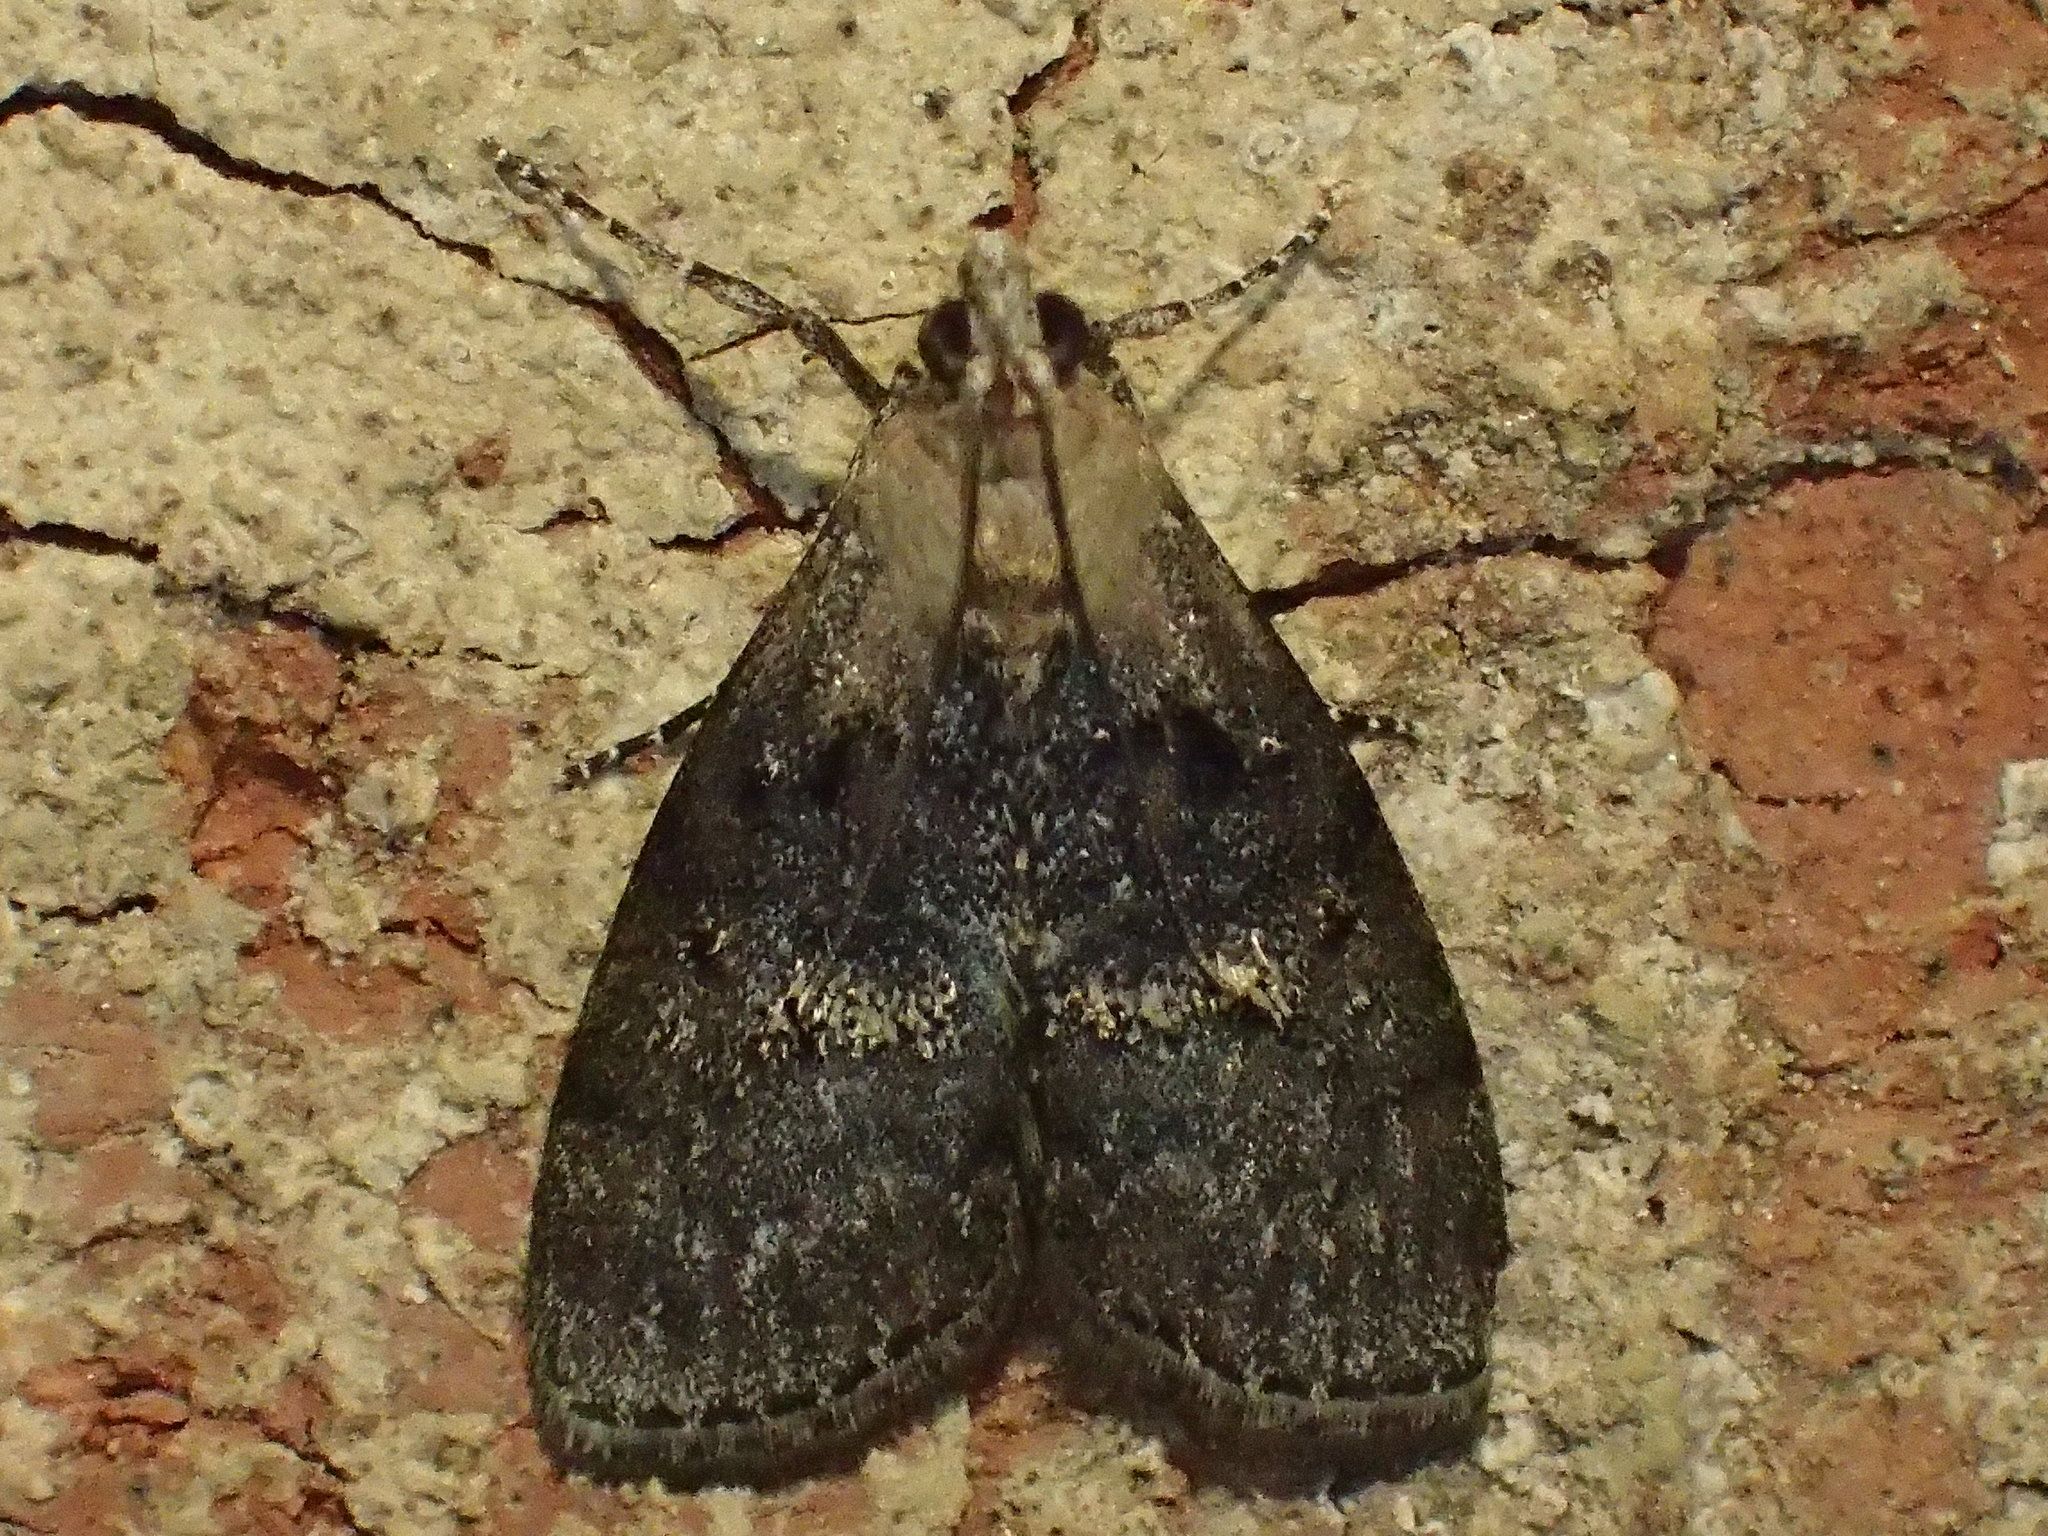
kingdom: Animalia
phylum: Arthropoda
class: Insecta
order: Lepidoptera
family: Pyralidae
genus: Pococera
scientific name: Pococera expandens
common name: Striped oak webworm moth
